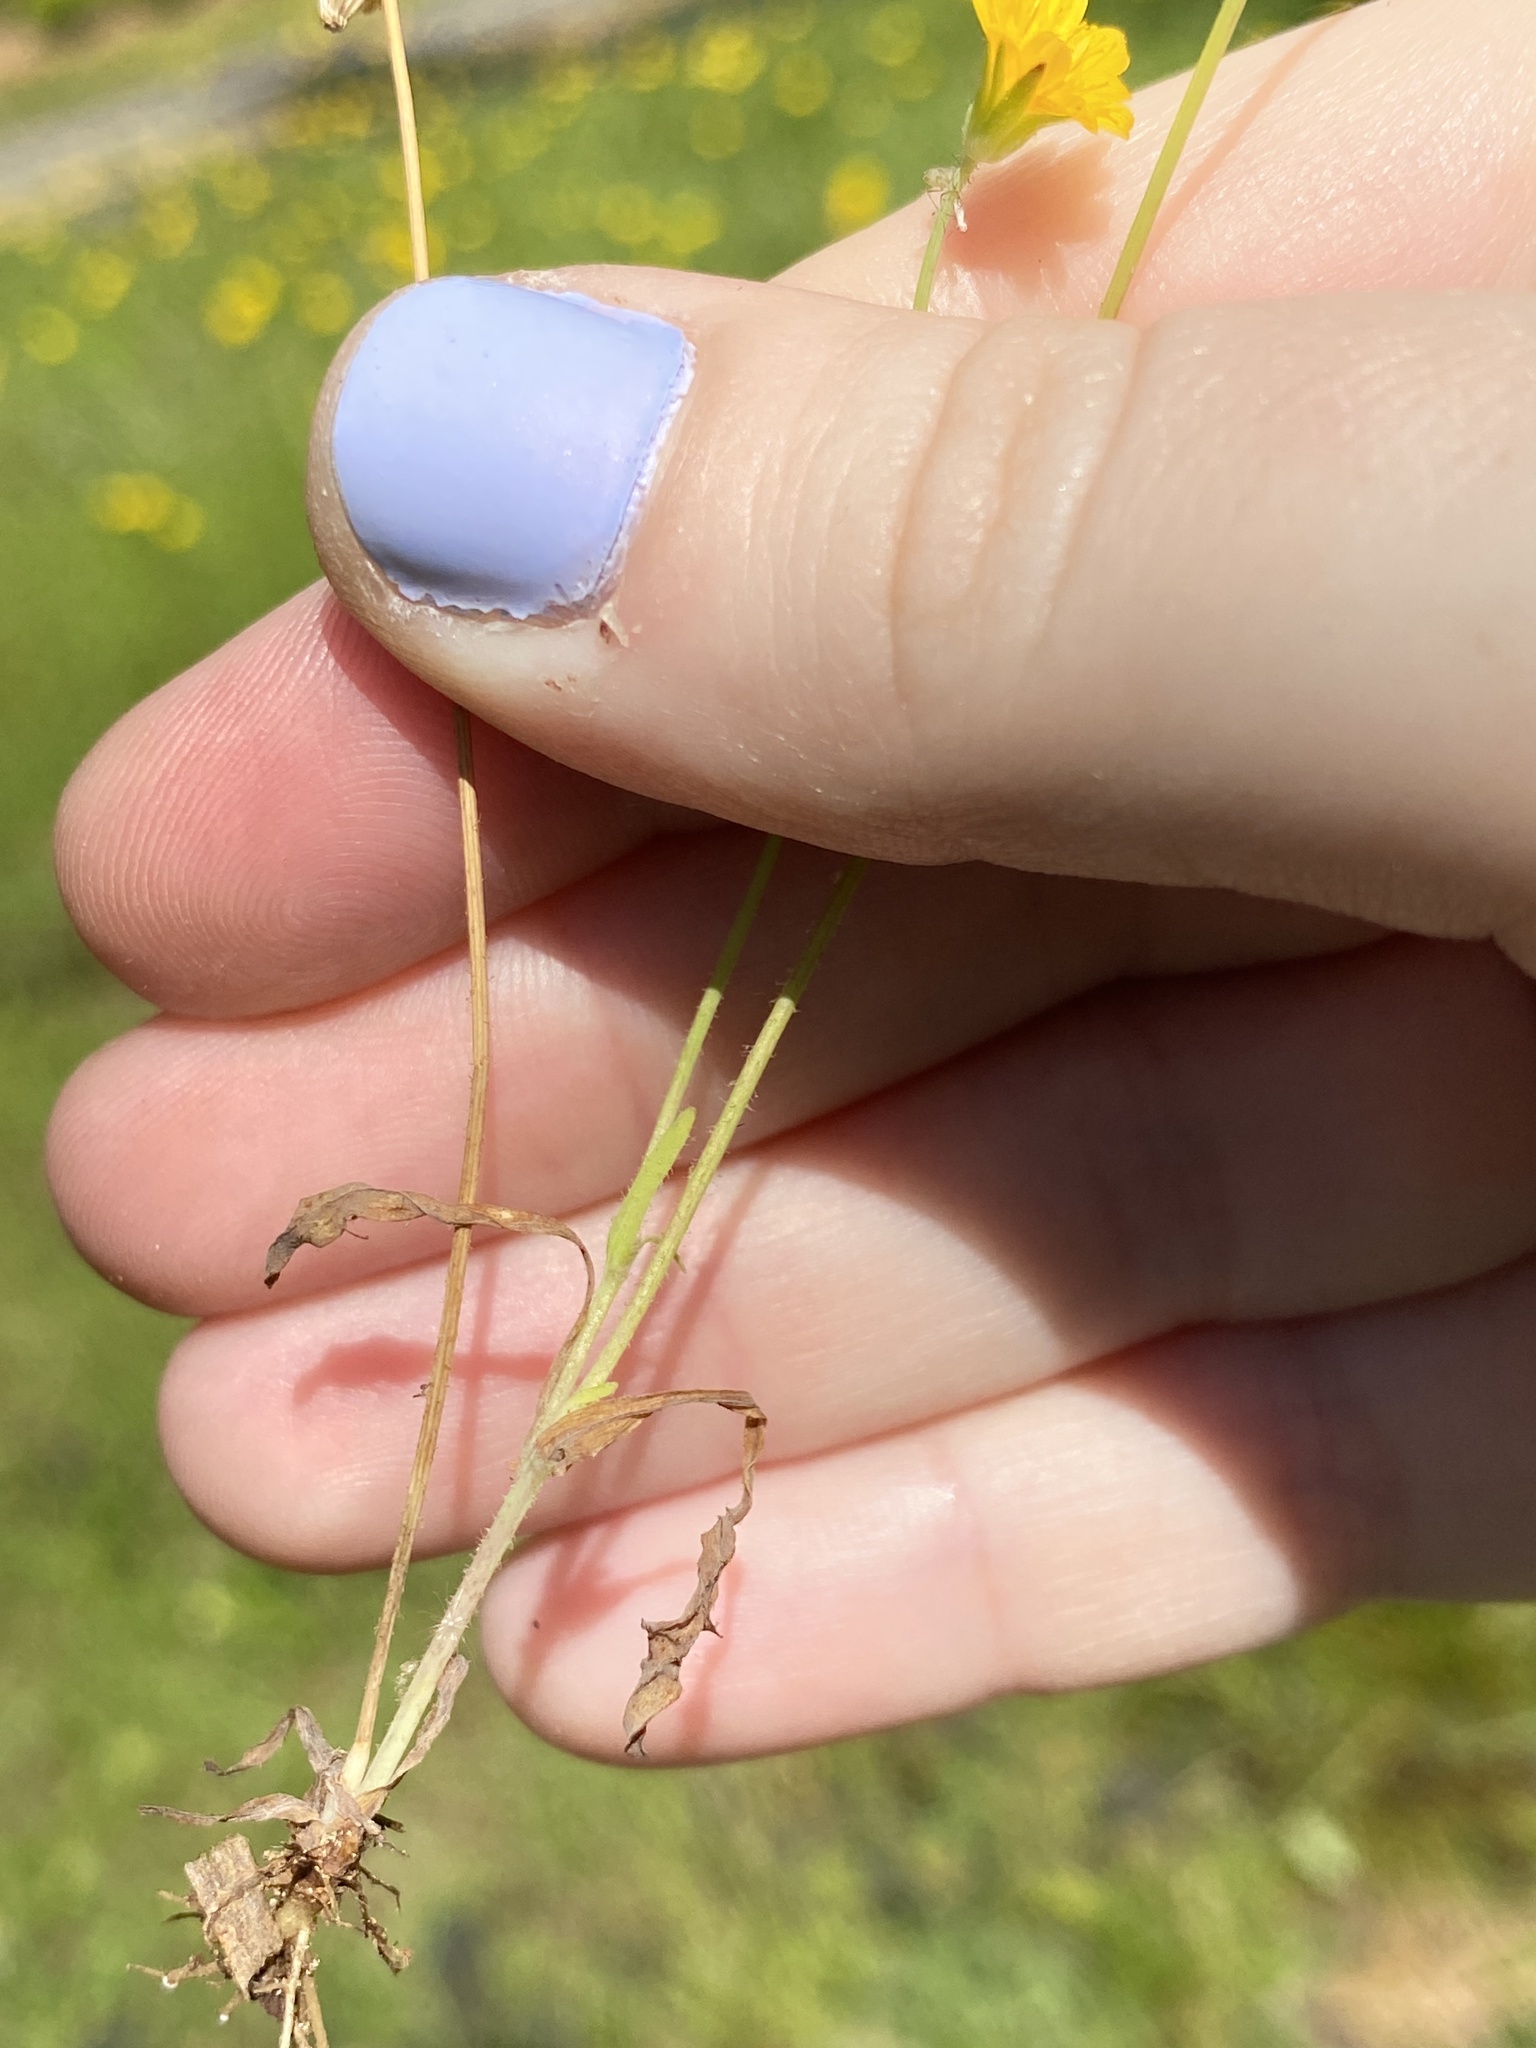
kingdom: Plantae
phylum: Tracheophyta
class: Magnoliopsida
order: Asterales
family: Asteraceae
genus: Krigia
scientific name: Krigia virginica
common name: Virginia dwarf-dandelion
